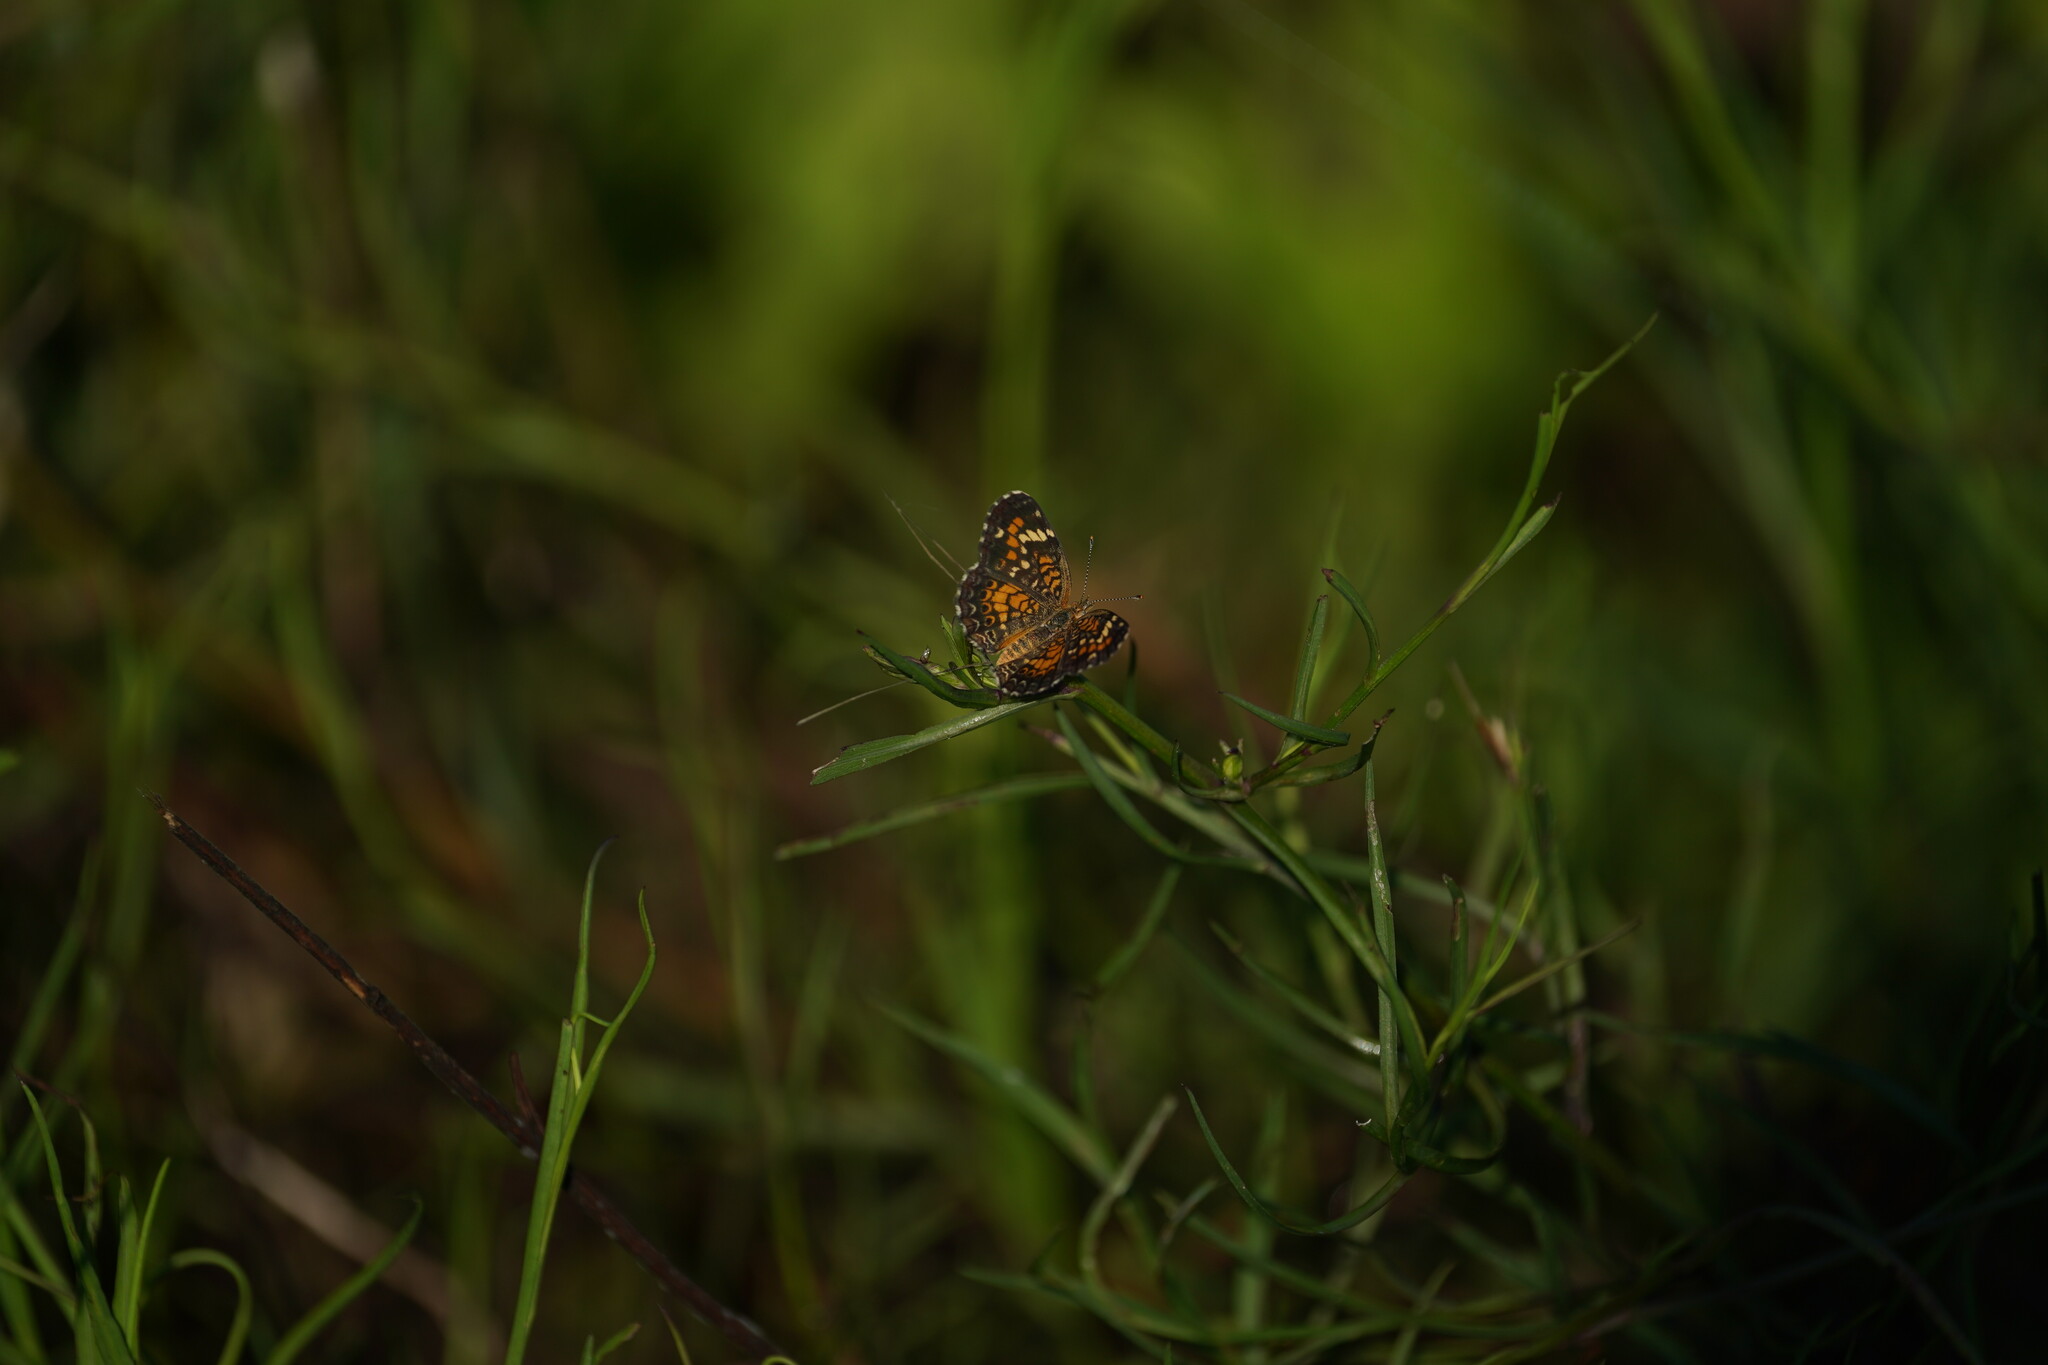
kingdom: Animalia
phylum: Arthropoda
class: Insecta
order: Lepidoptera
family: Nymphalidae
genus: Phyciodes
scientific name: Phyciodes phaon
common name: Phaon crescent
